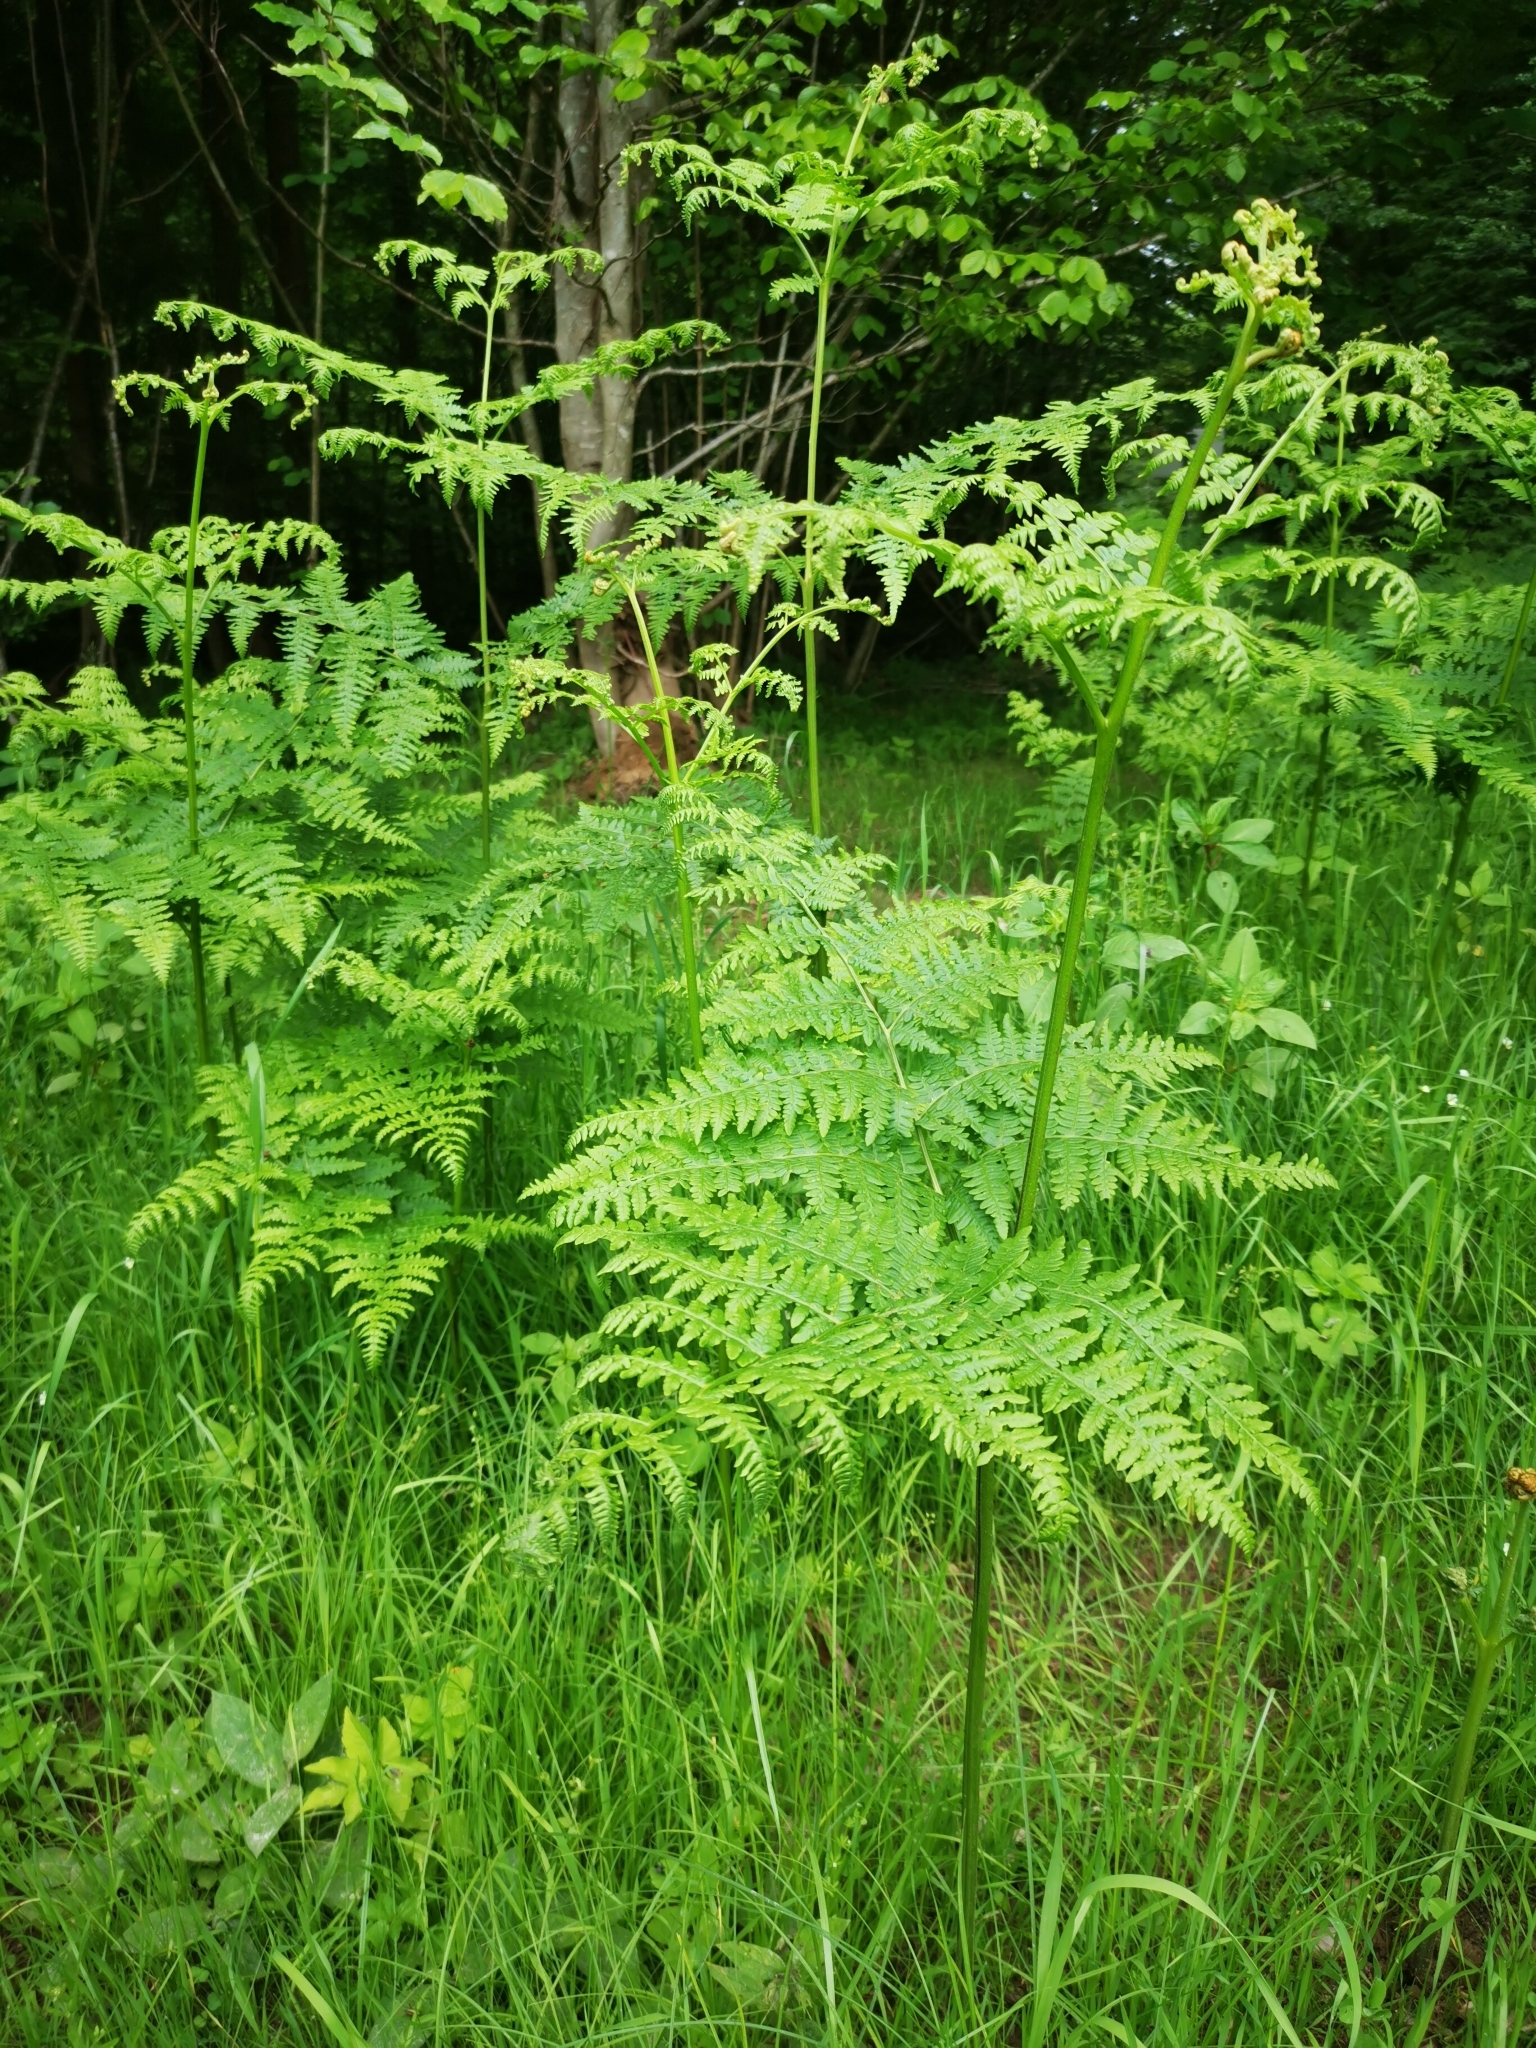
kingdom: Plantae
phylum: Tracheophyta
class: Polypodiopsida
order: Polypodiales
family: Dennstaedtiaceae
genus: Pteridium
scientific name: Pteridium aquilinum
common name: Bracken
